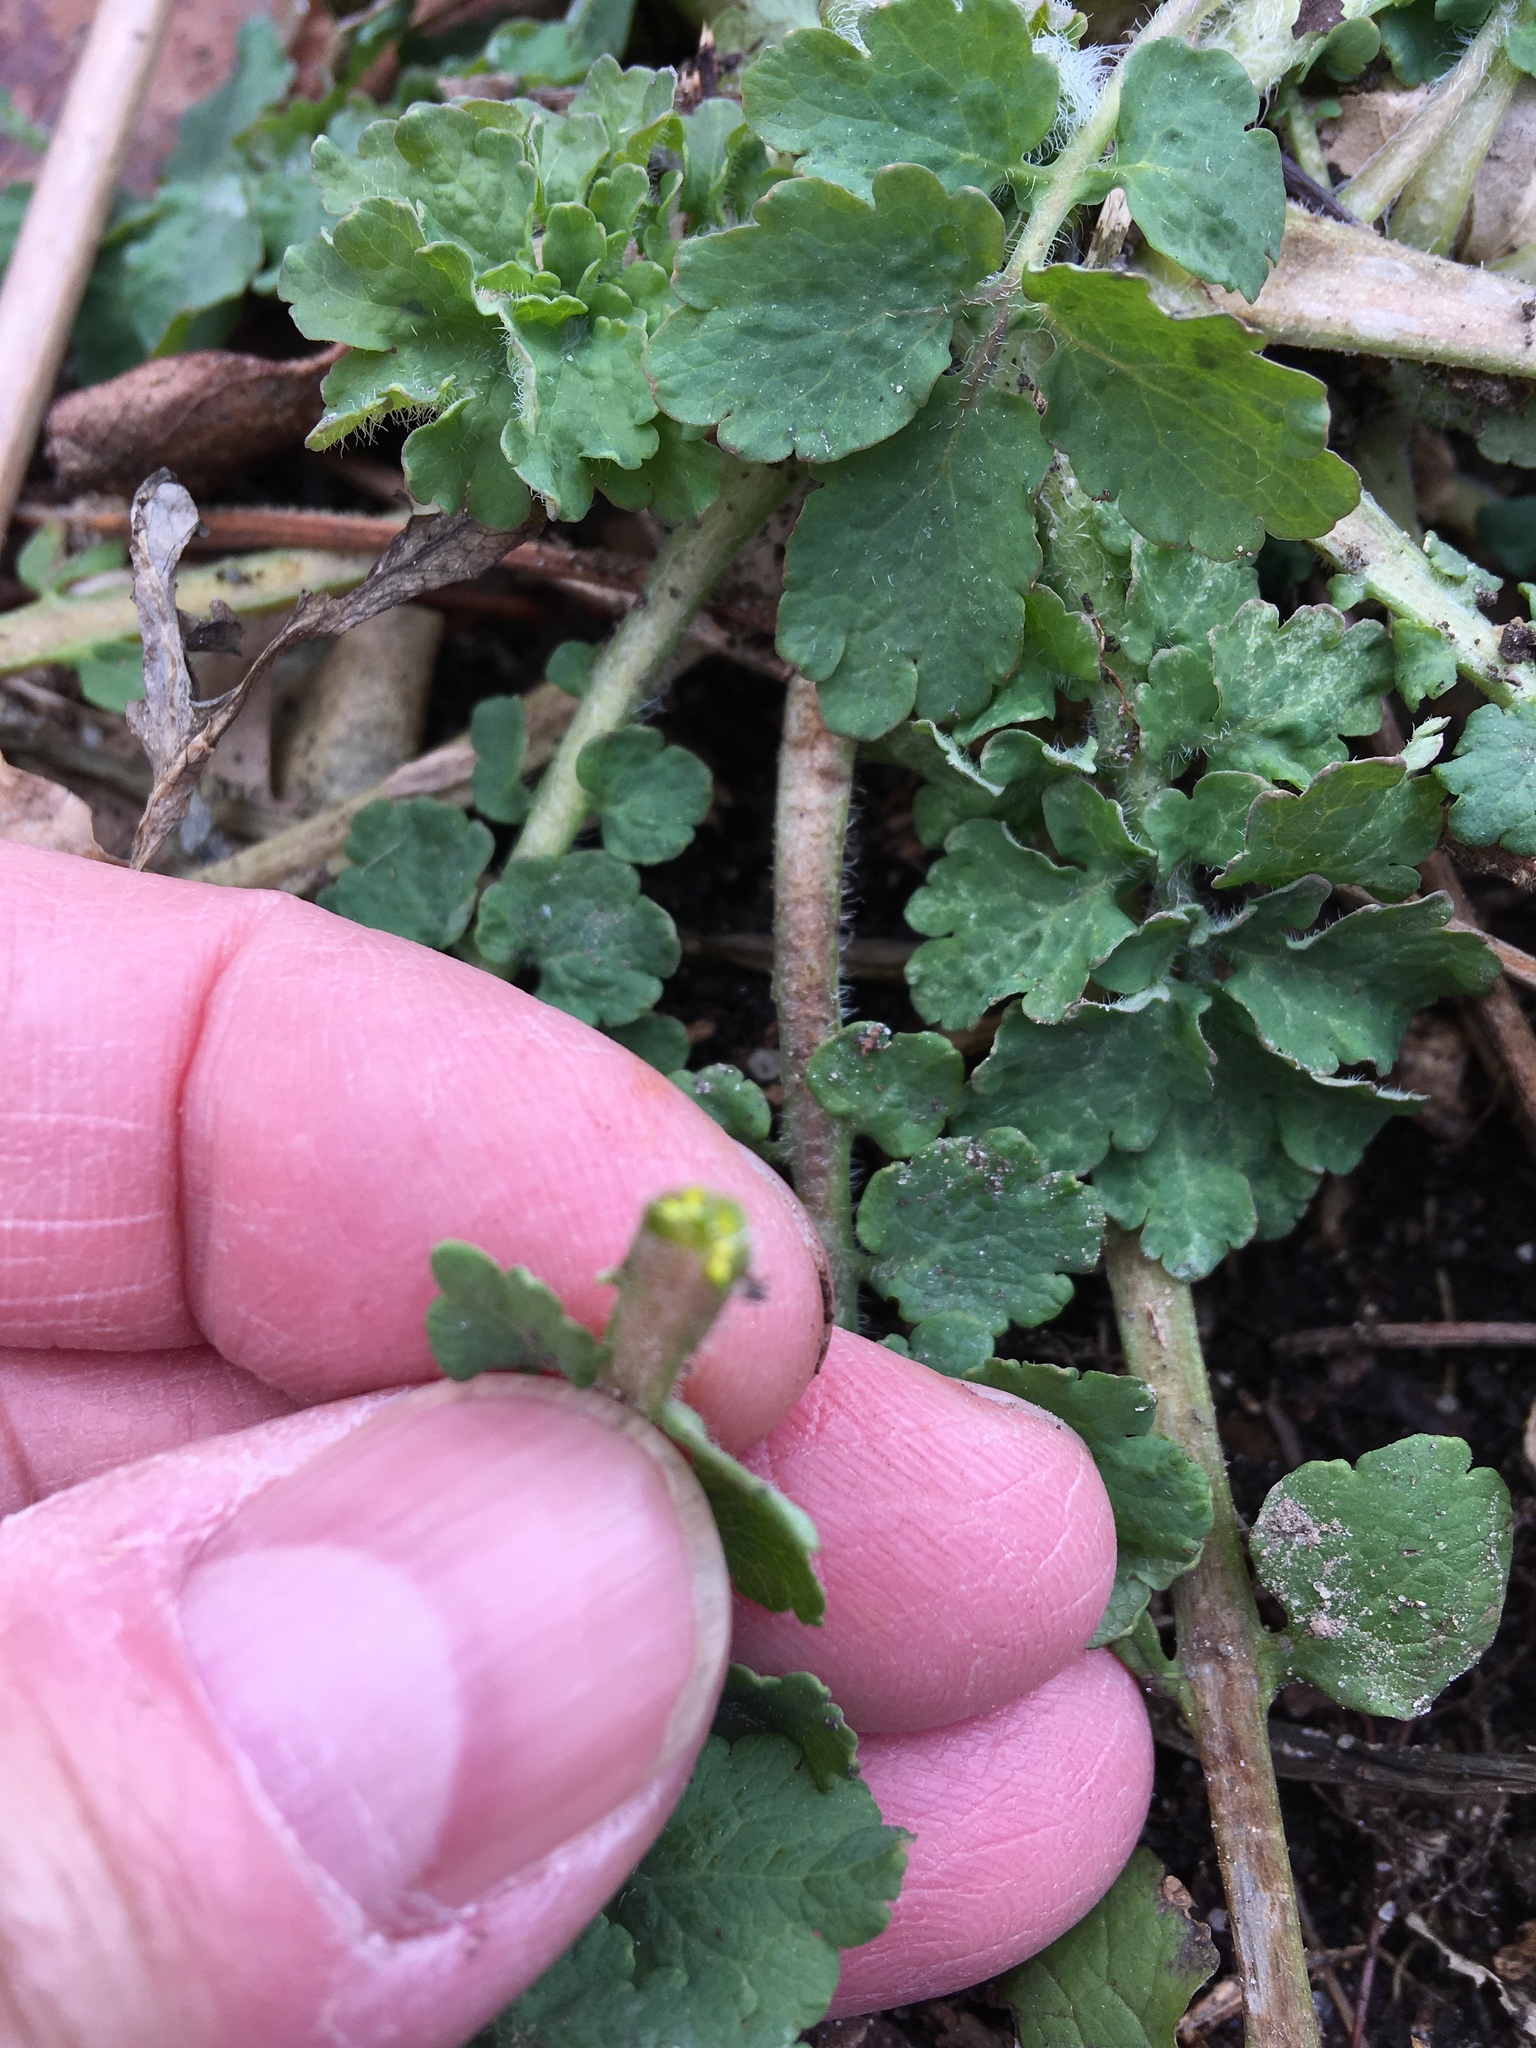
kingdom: Plantae
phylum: Tracheophyta
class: Magnoliopsida
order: Ranunculales
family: Papaveraceae
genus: Chelidonium
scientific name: Chelidonium majus
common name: Greater celandine
